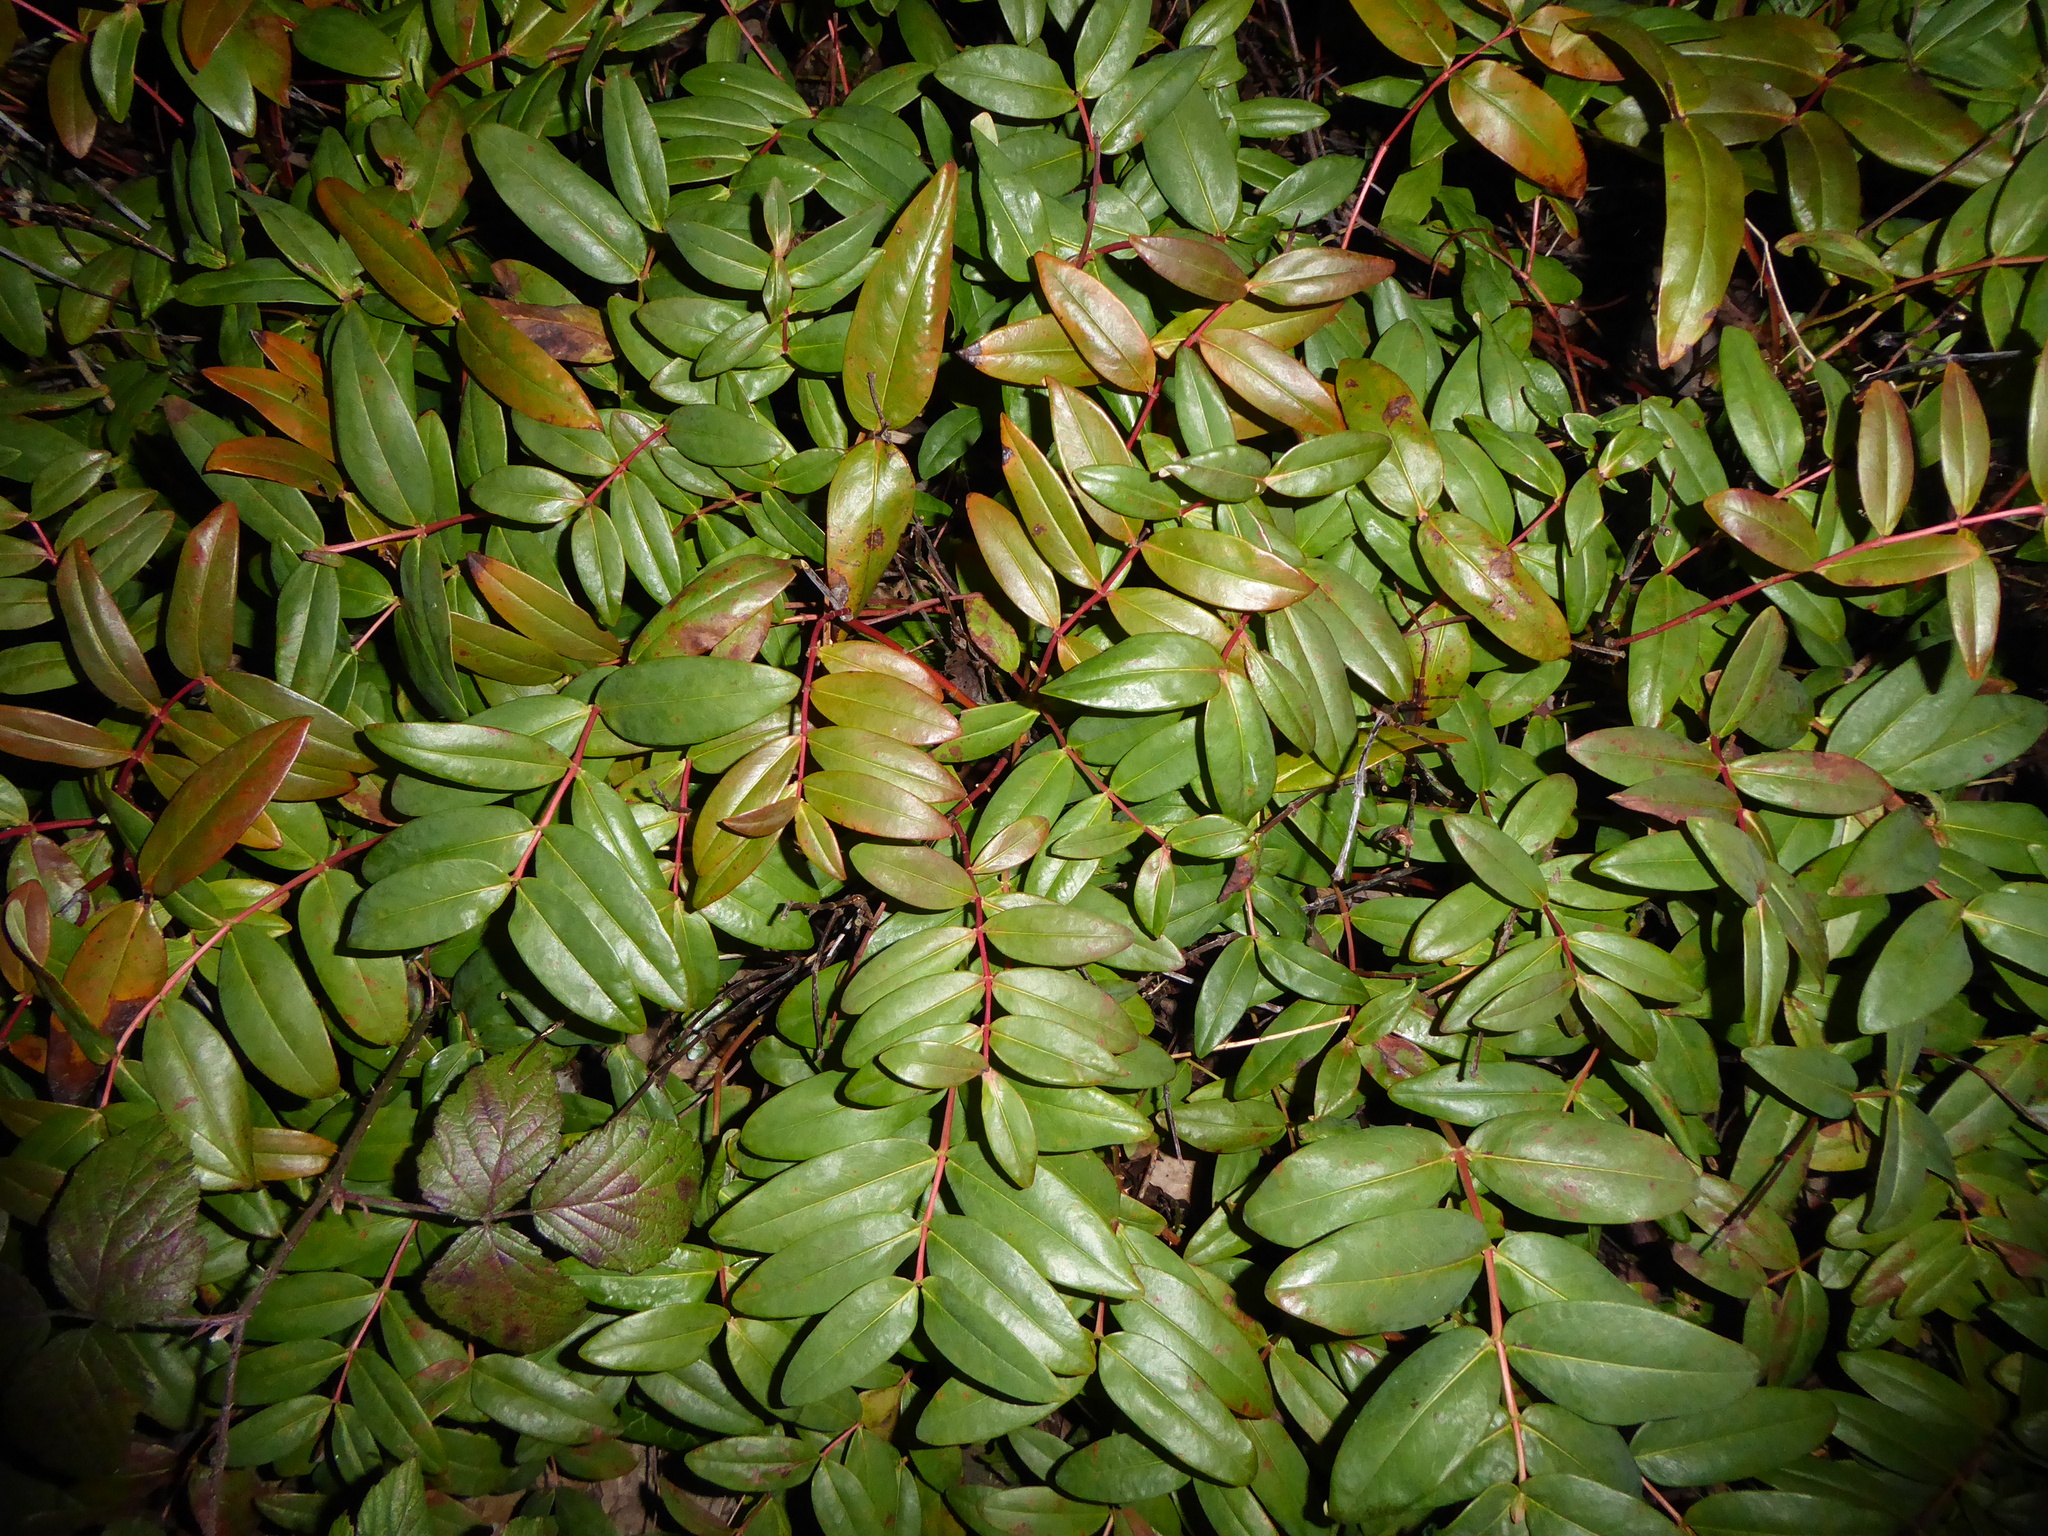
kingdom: Plantae
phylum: Tracheophyta
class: Magnoliopsida
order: Malpighiales
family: Hypericaceae
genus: Hypericum
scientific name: Hypericum calycinum
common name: Rose-of-sharon
